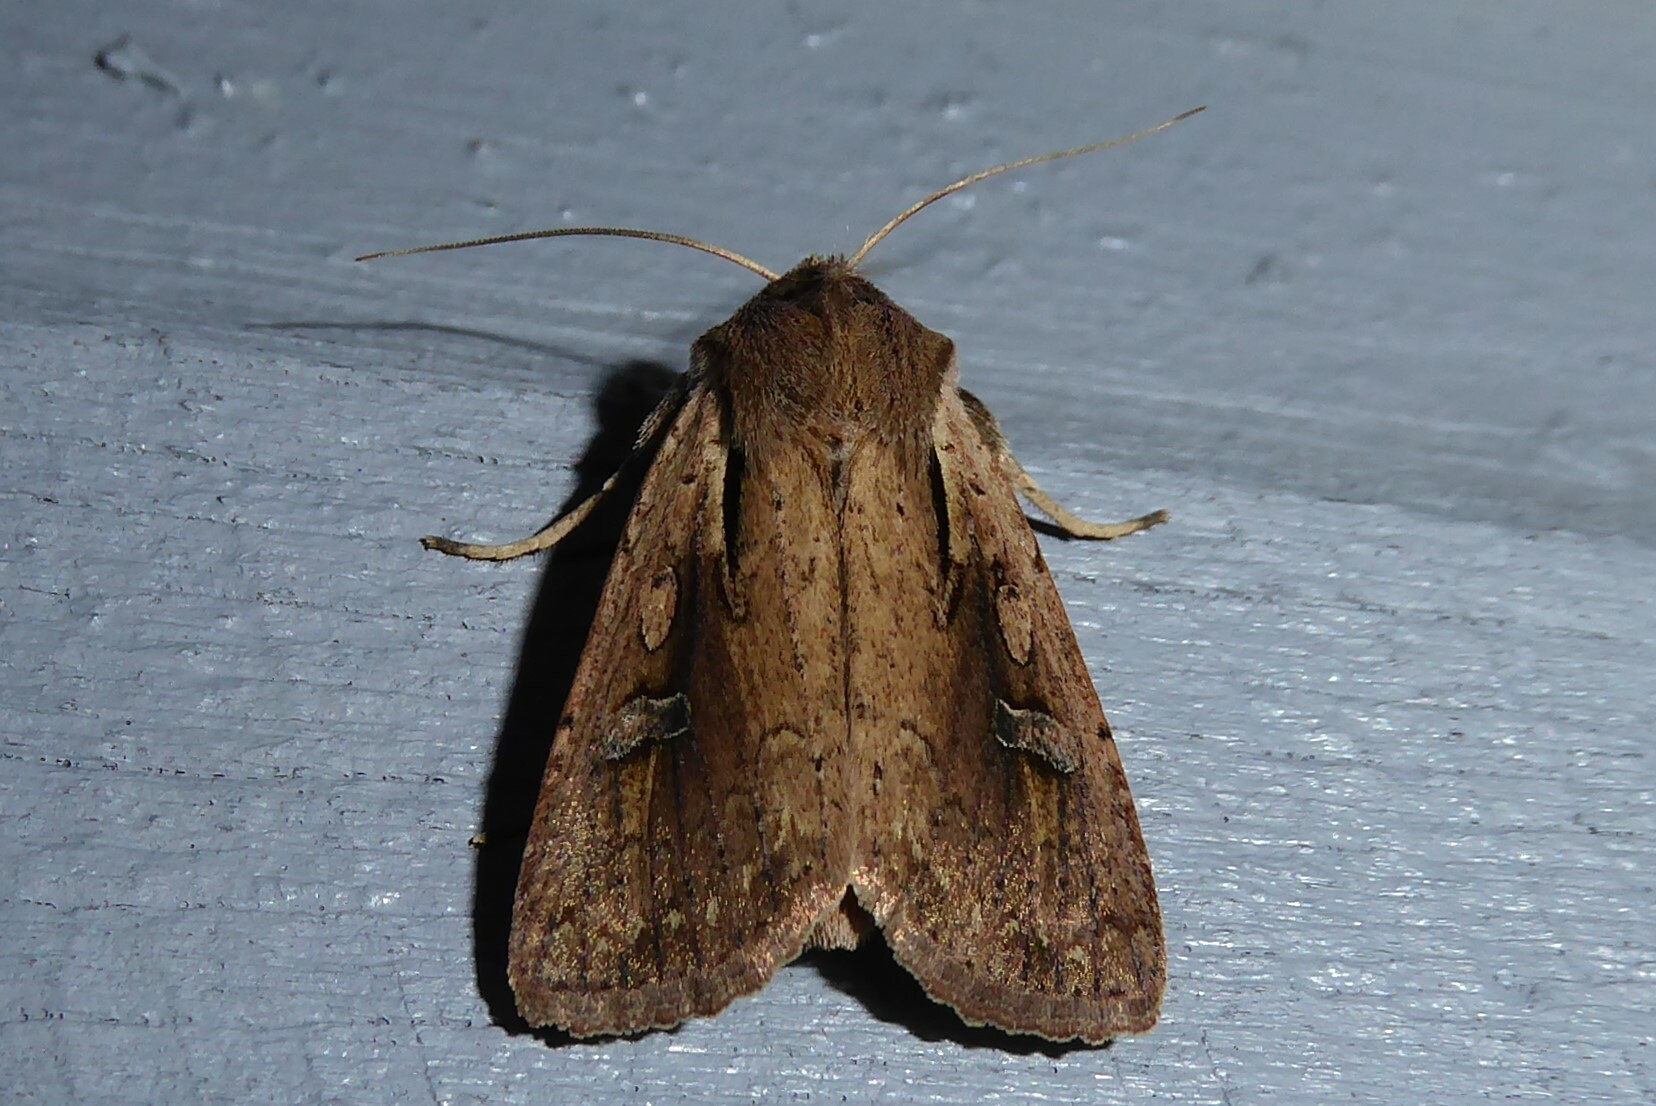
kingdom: Animalia
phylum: Arthropoda
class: Insecta
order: Lepidoptera
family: Noctuidae
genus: Ichneutica
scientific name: Ichneutica atristriga
